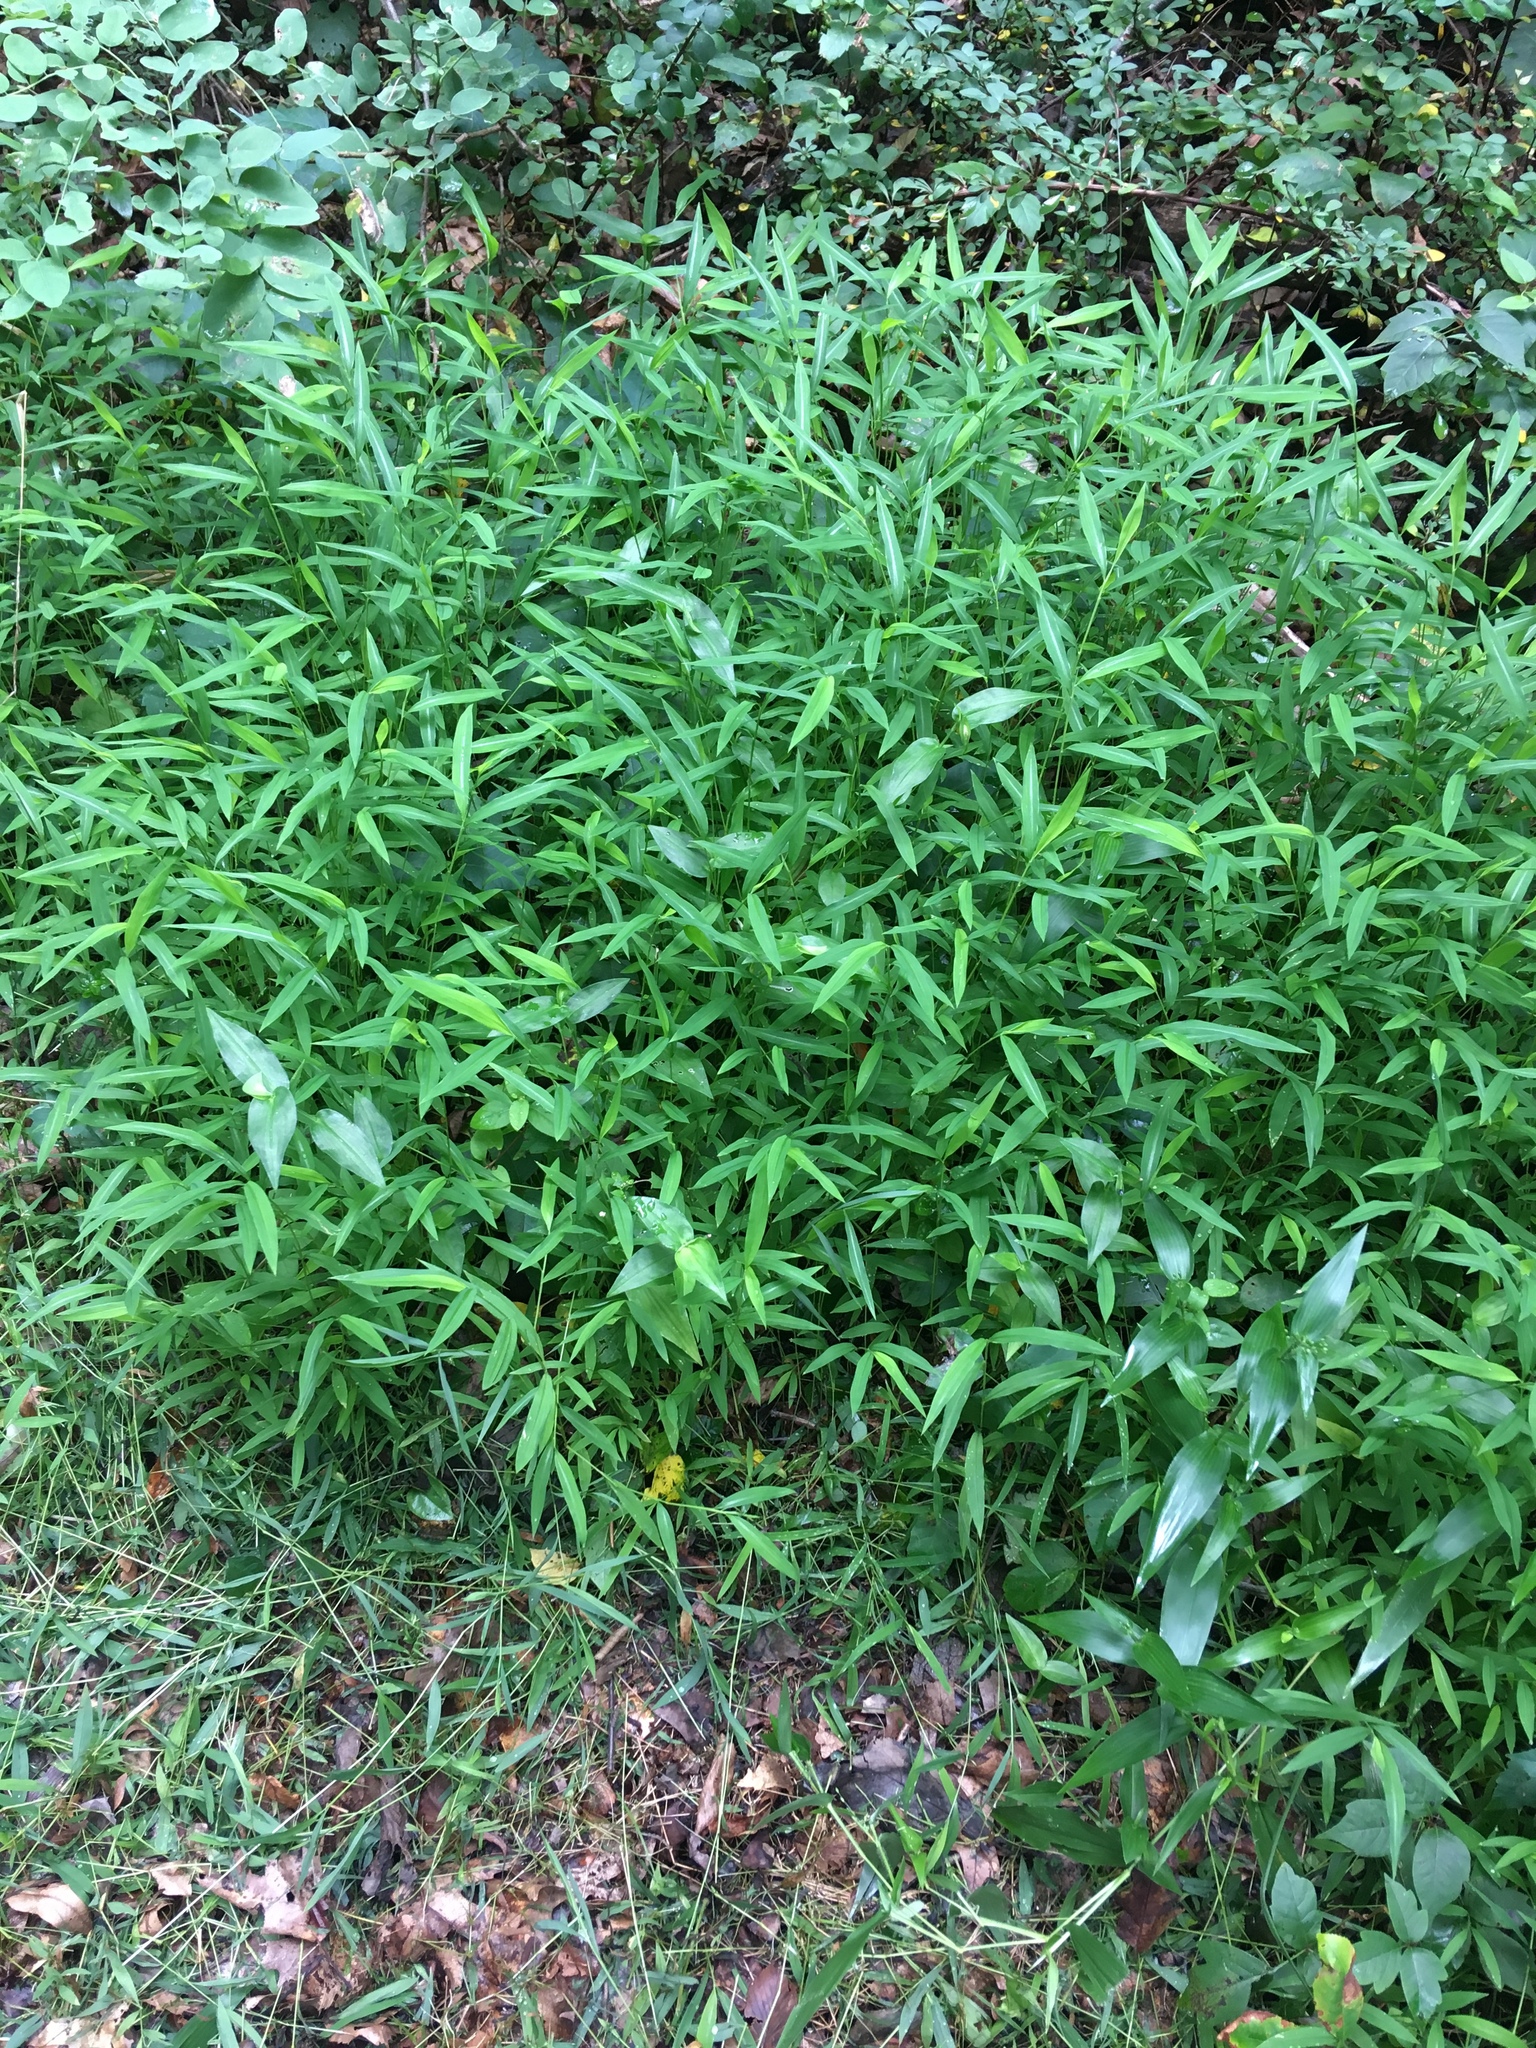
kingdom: Plantae
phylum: Tracheophyta
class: Liliopsida
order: Poales
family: Poaceae
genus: Microstegium
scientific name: Microstegium vimineum
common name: Japanese stiltgrass
